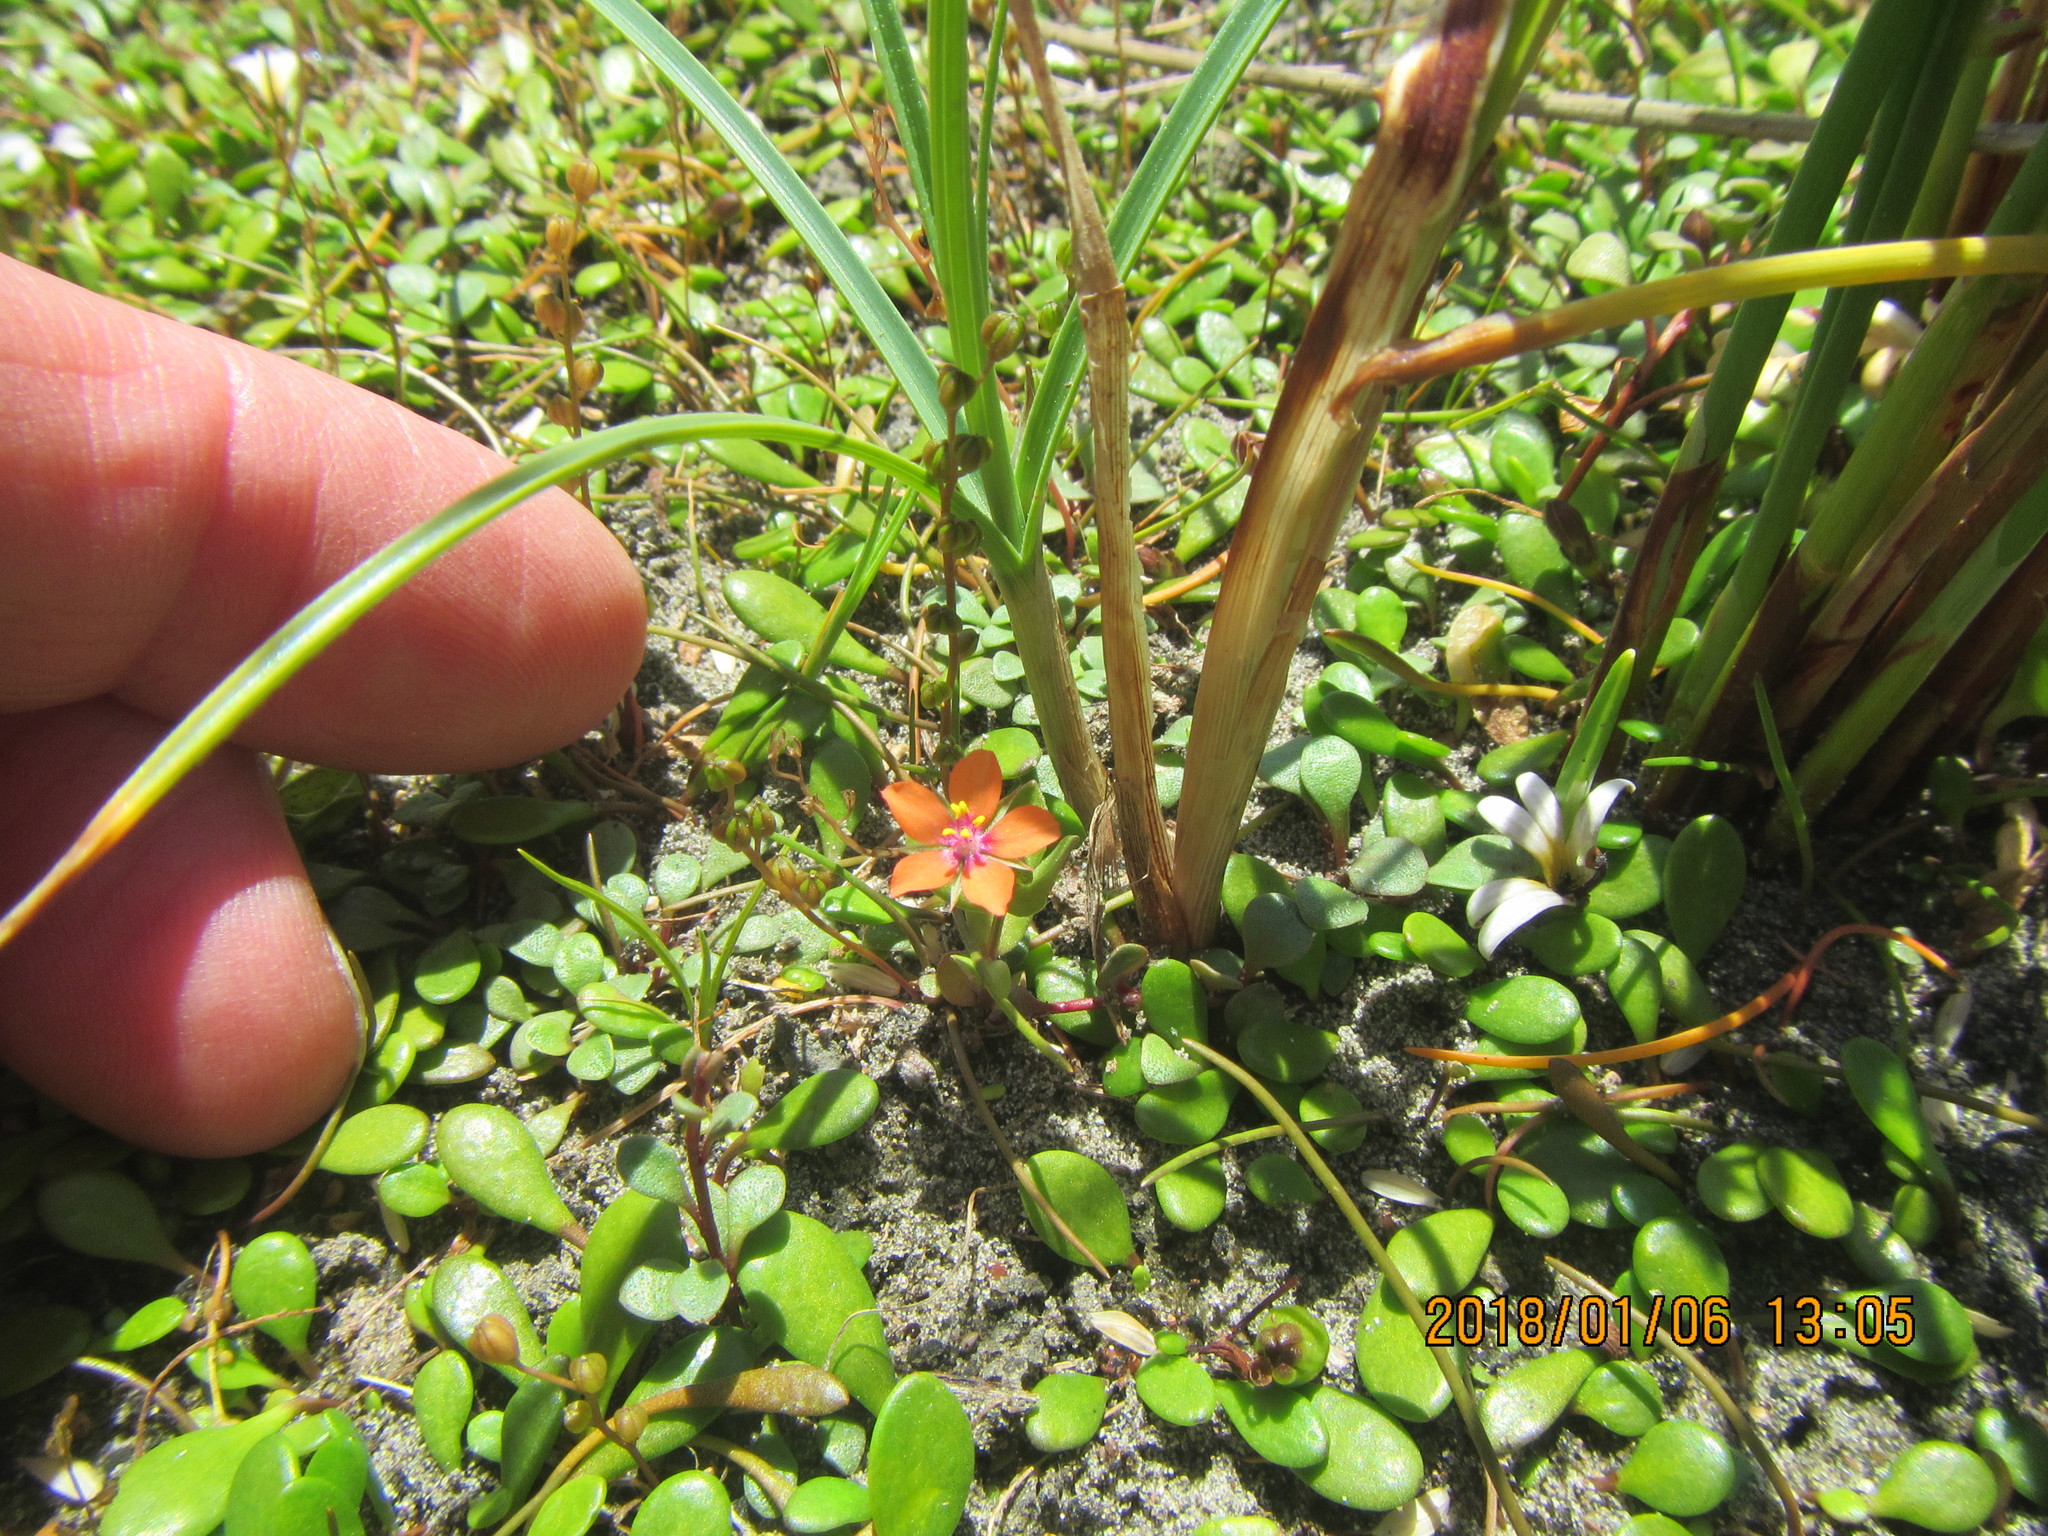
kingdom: Plantae
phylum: Tracheophyta
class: Magnoliopsida
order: Ericales
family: Primulaceae
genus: Lysimachia
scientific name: Lysimachia arvensis
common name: Scarlet pimpernel
